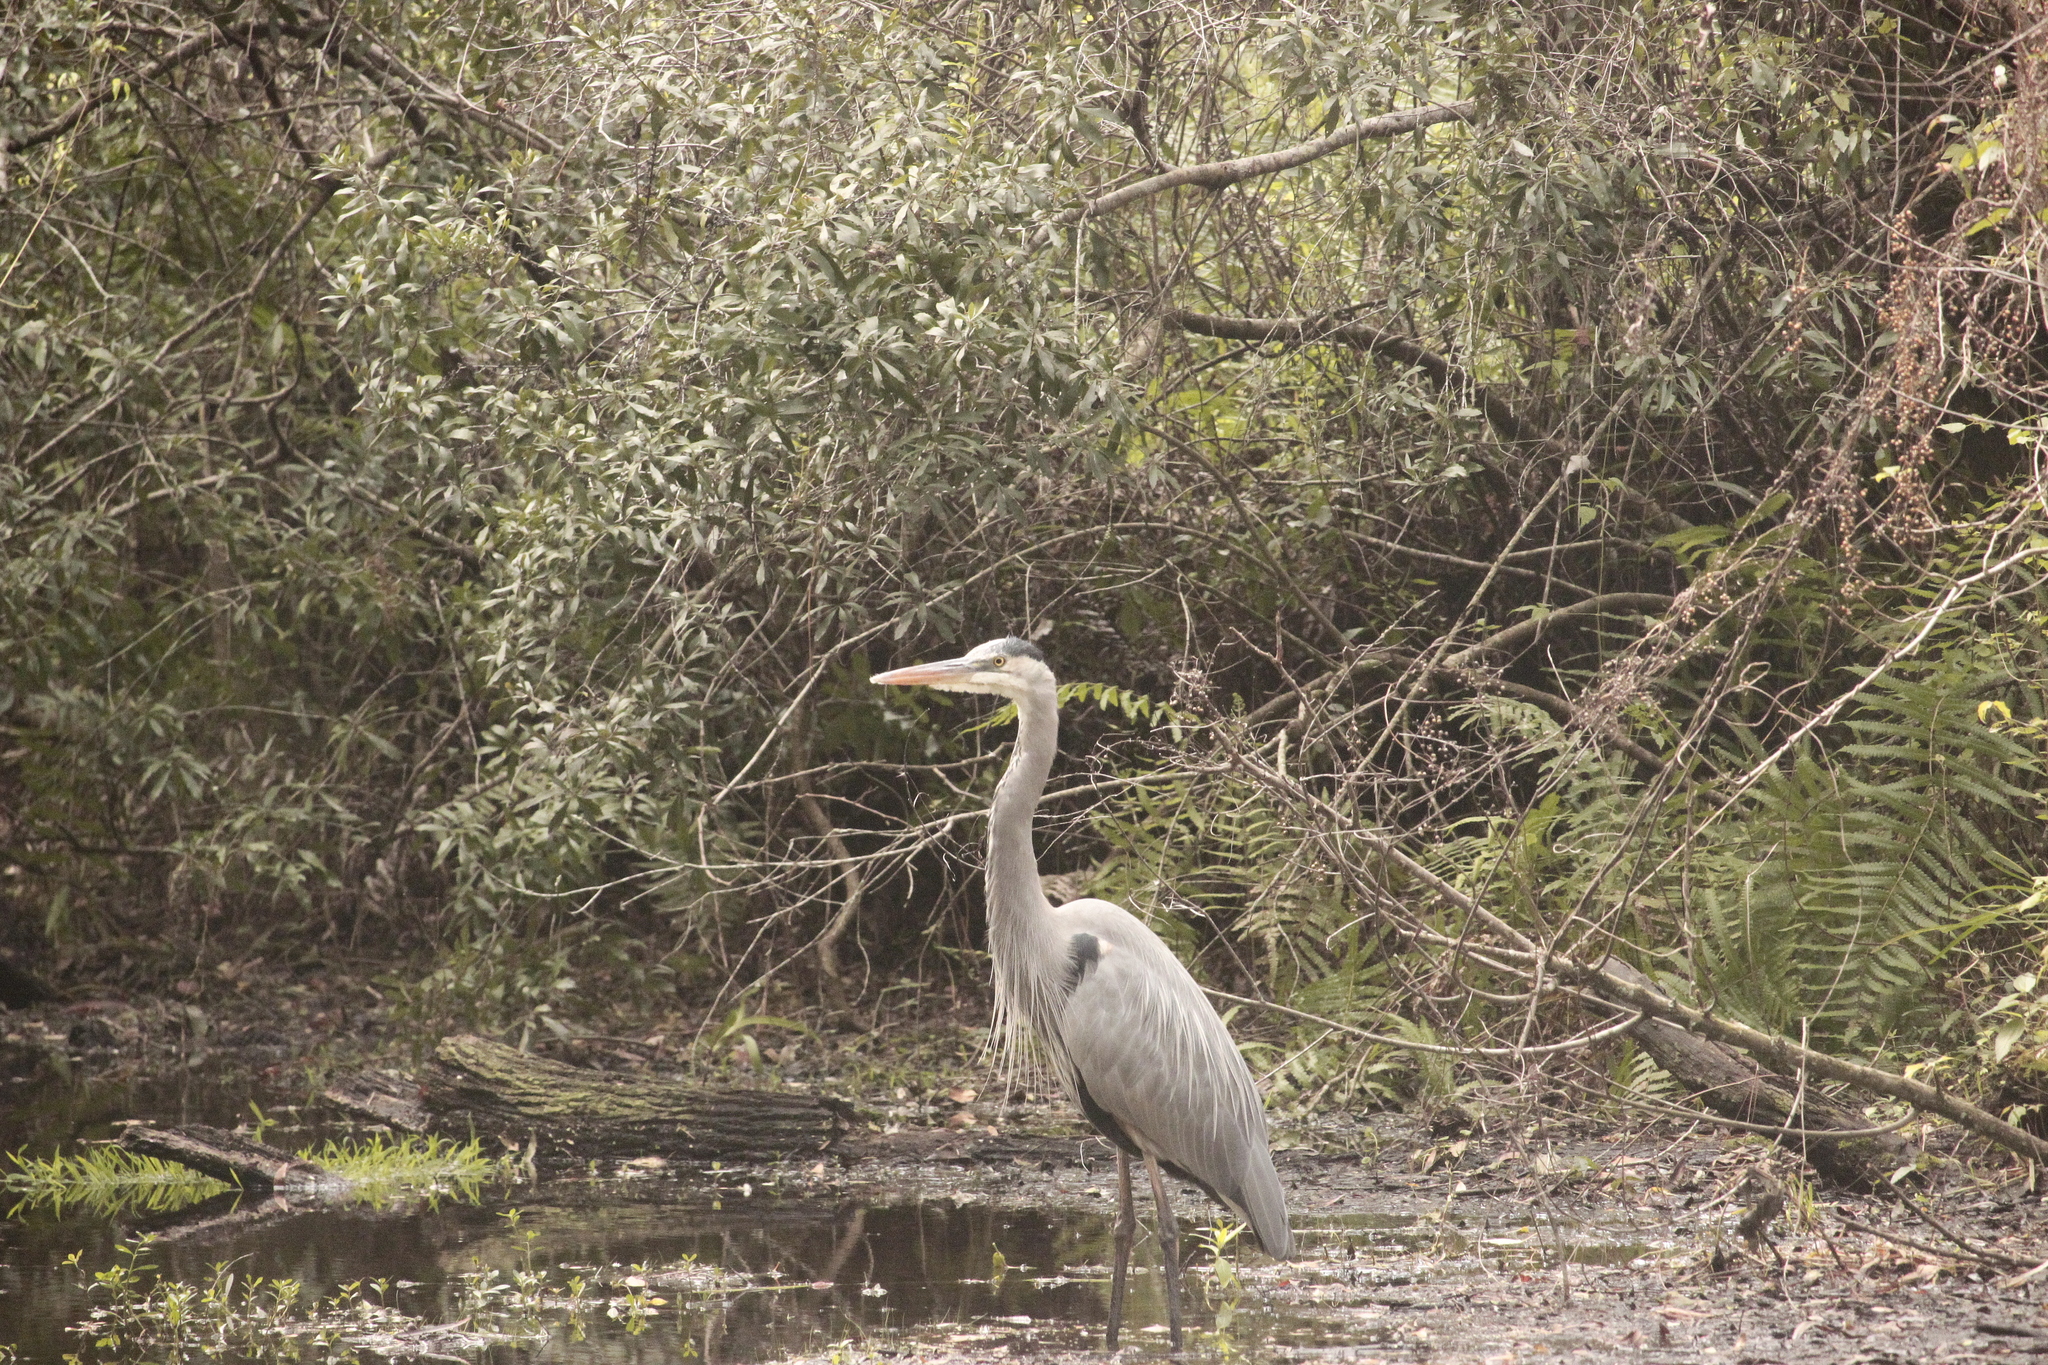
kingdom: Animalia
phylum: Chordata
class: Aves
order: Pelecaniformes
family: Ardeidae
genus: Ardea
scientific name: Ardea herodias
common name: Great blue heron
